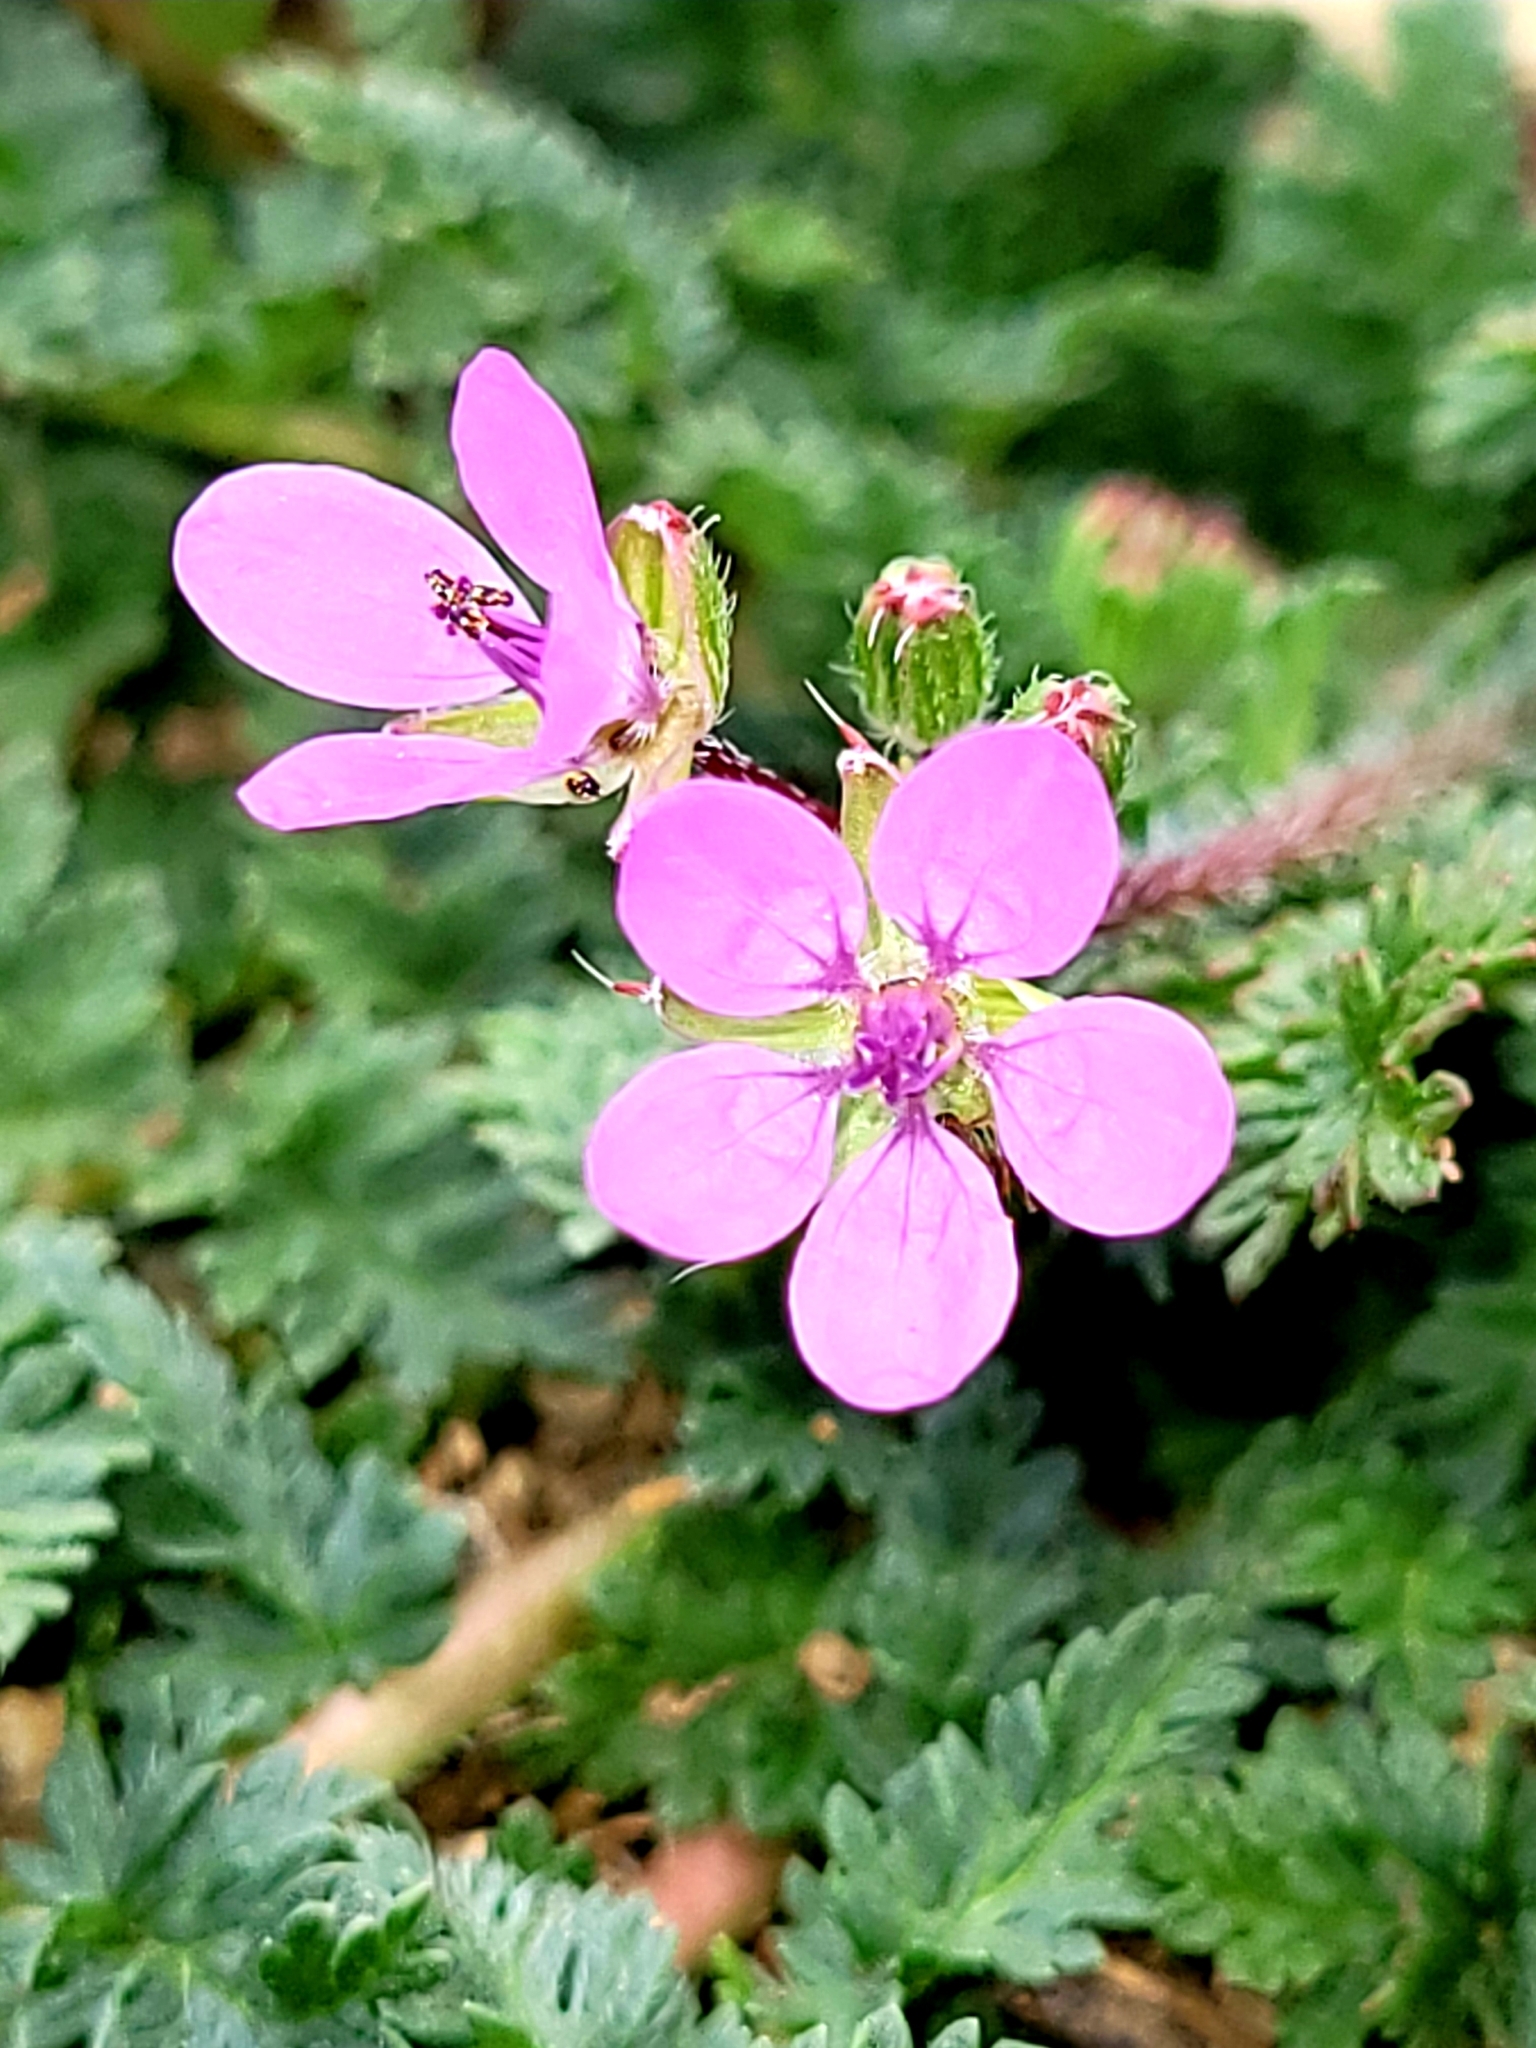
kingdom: Plantae
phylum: Tracheophyta
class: Magnoliopsida
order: Geraniales
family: Geraniaceae
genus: Erodium
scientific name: Erodium cicutarium
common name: Common stork's-bill
